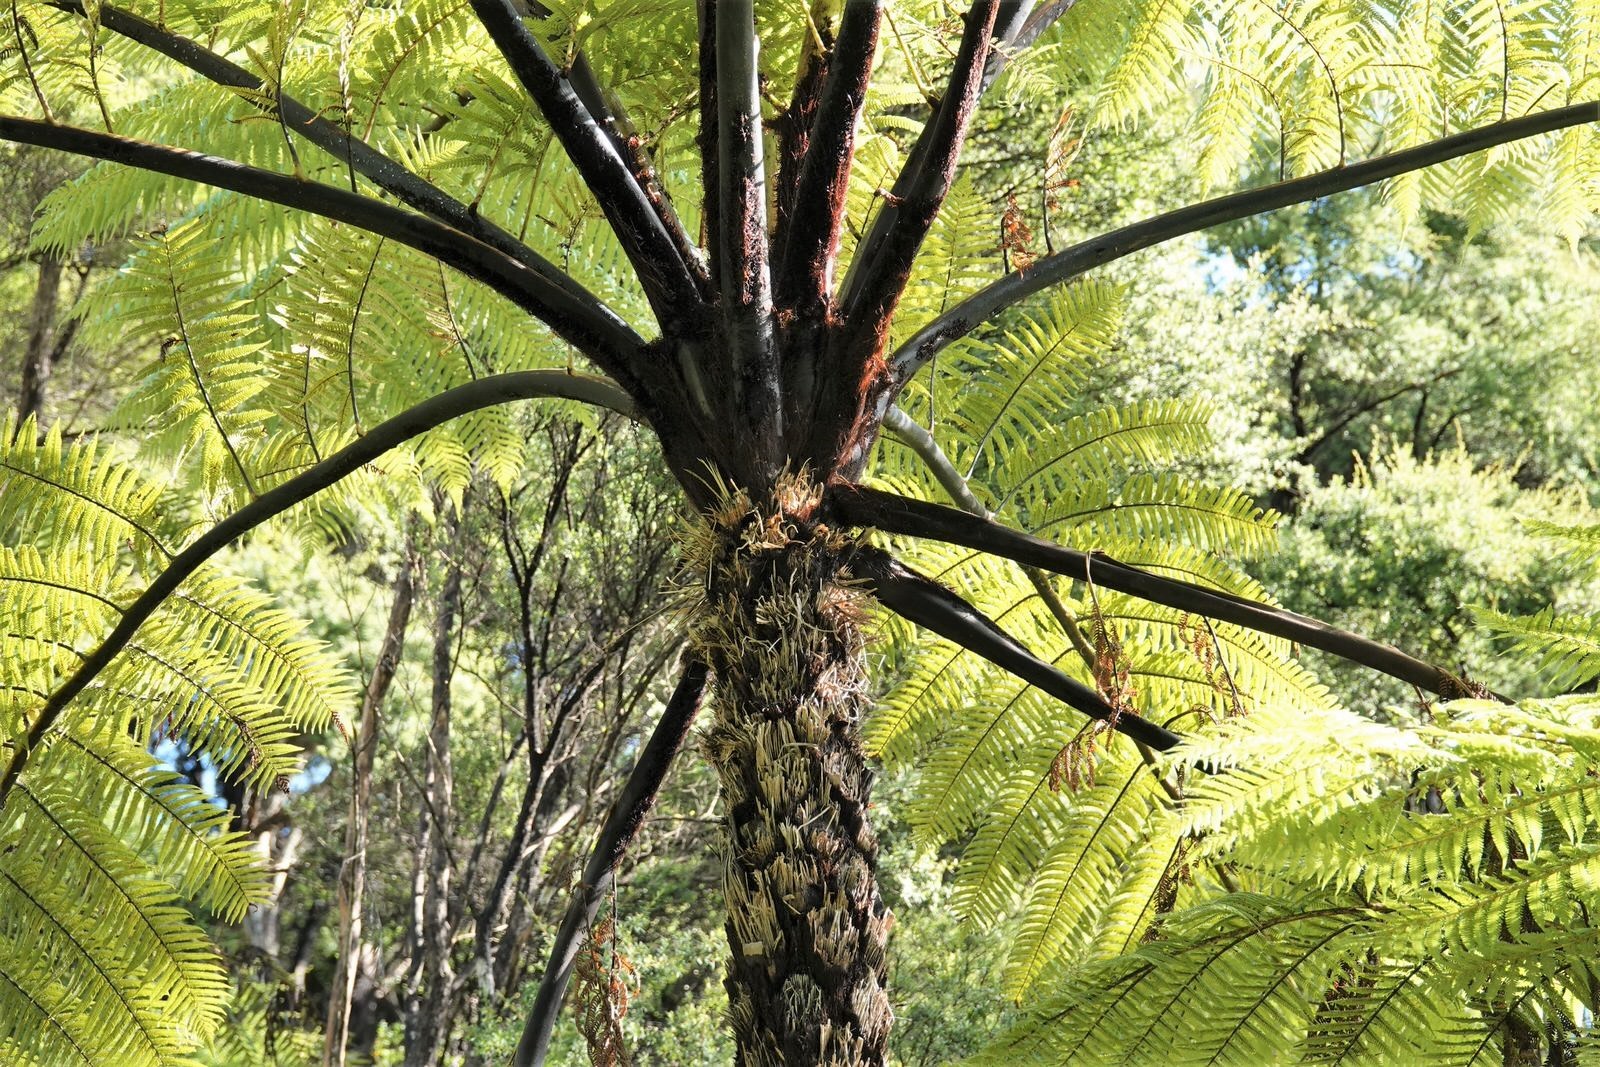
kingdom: Plantae
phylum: Tracheophyta
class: Polypodiopsida
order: Cyatheales
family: Cyatheaceae
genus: Sphaeropteris
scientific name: Sphaeropteris medullaris
